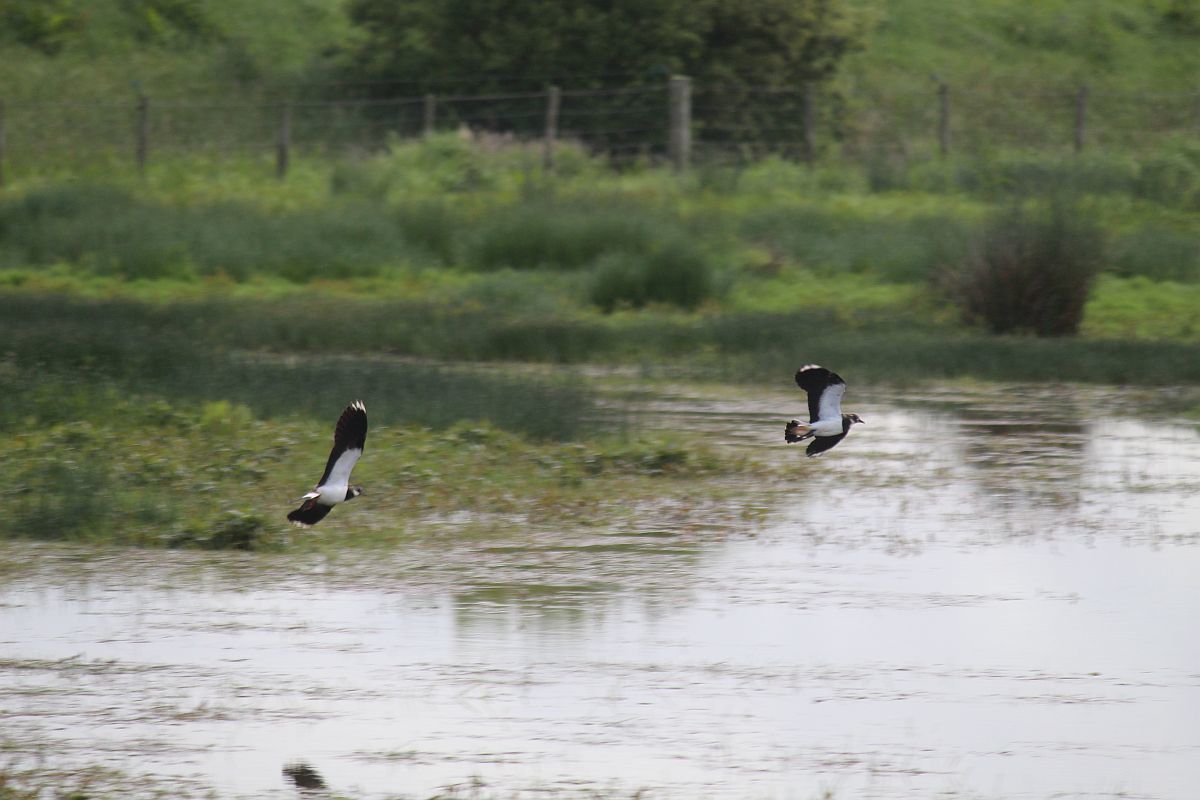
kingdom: Animalia
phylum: Chordata
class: Aves
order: Charadriiformes
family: Charadriidae
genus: Vanellus
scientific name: Vanellus vanellus
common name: Northern lapwing
